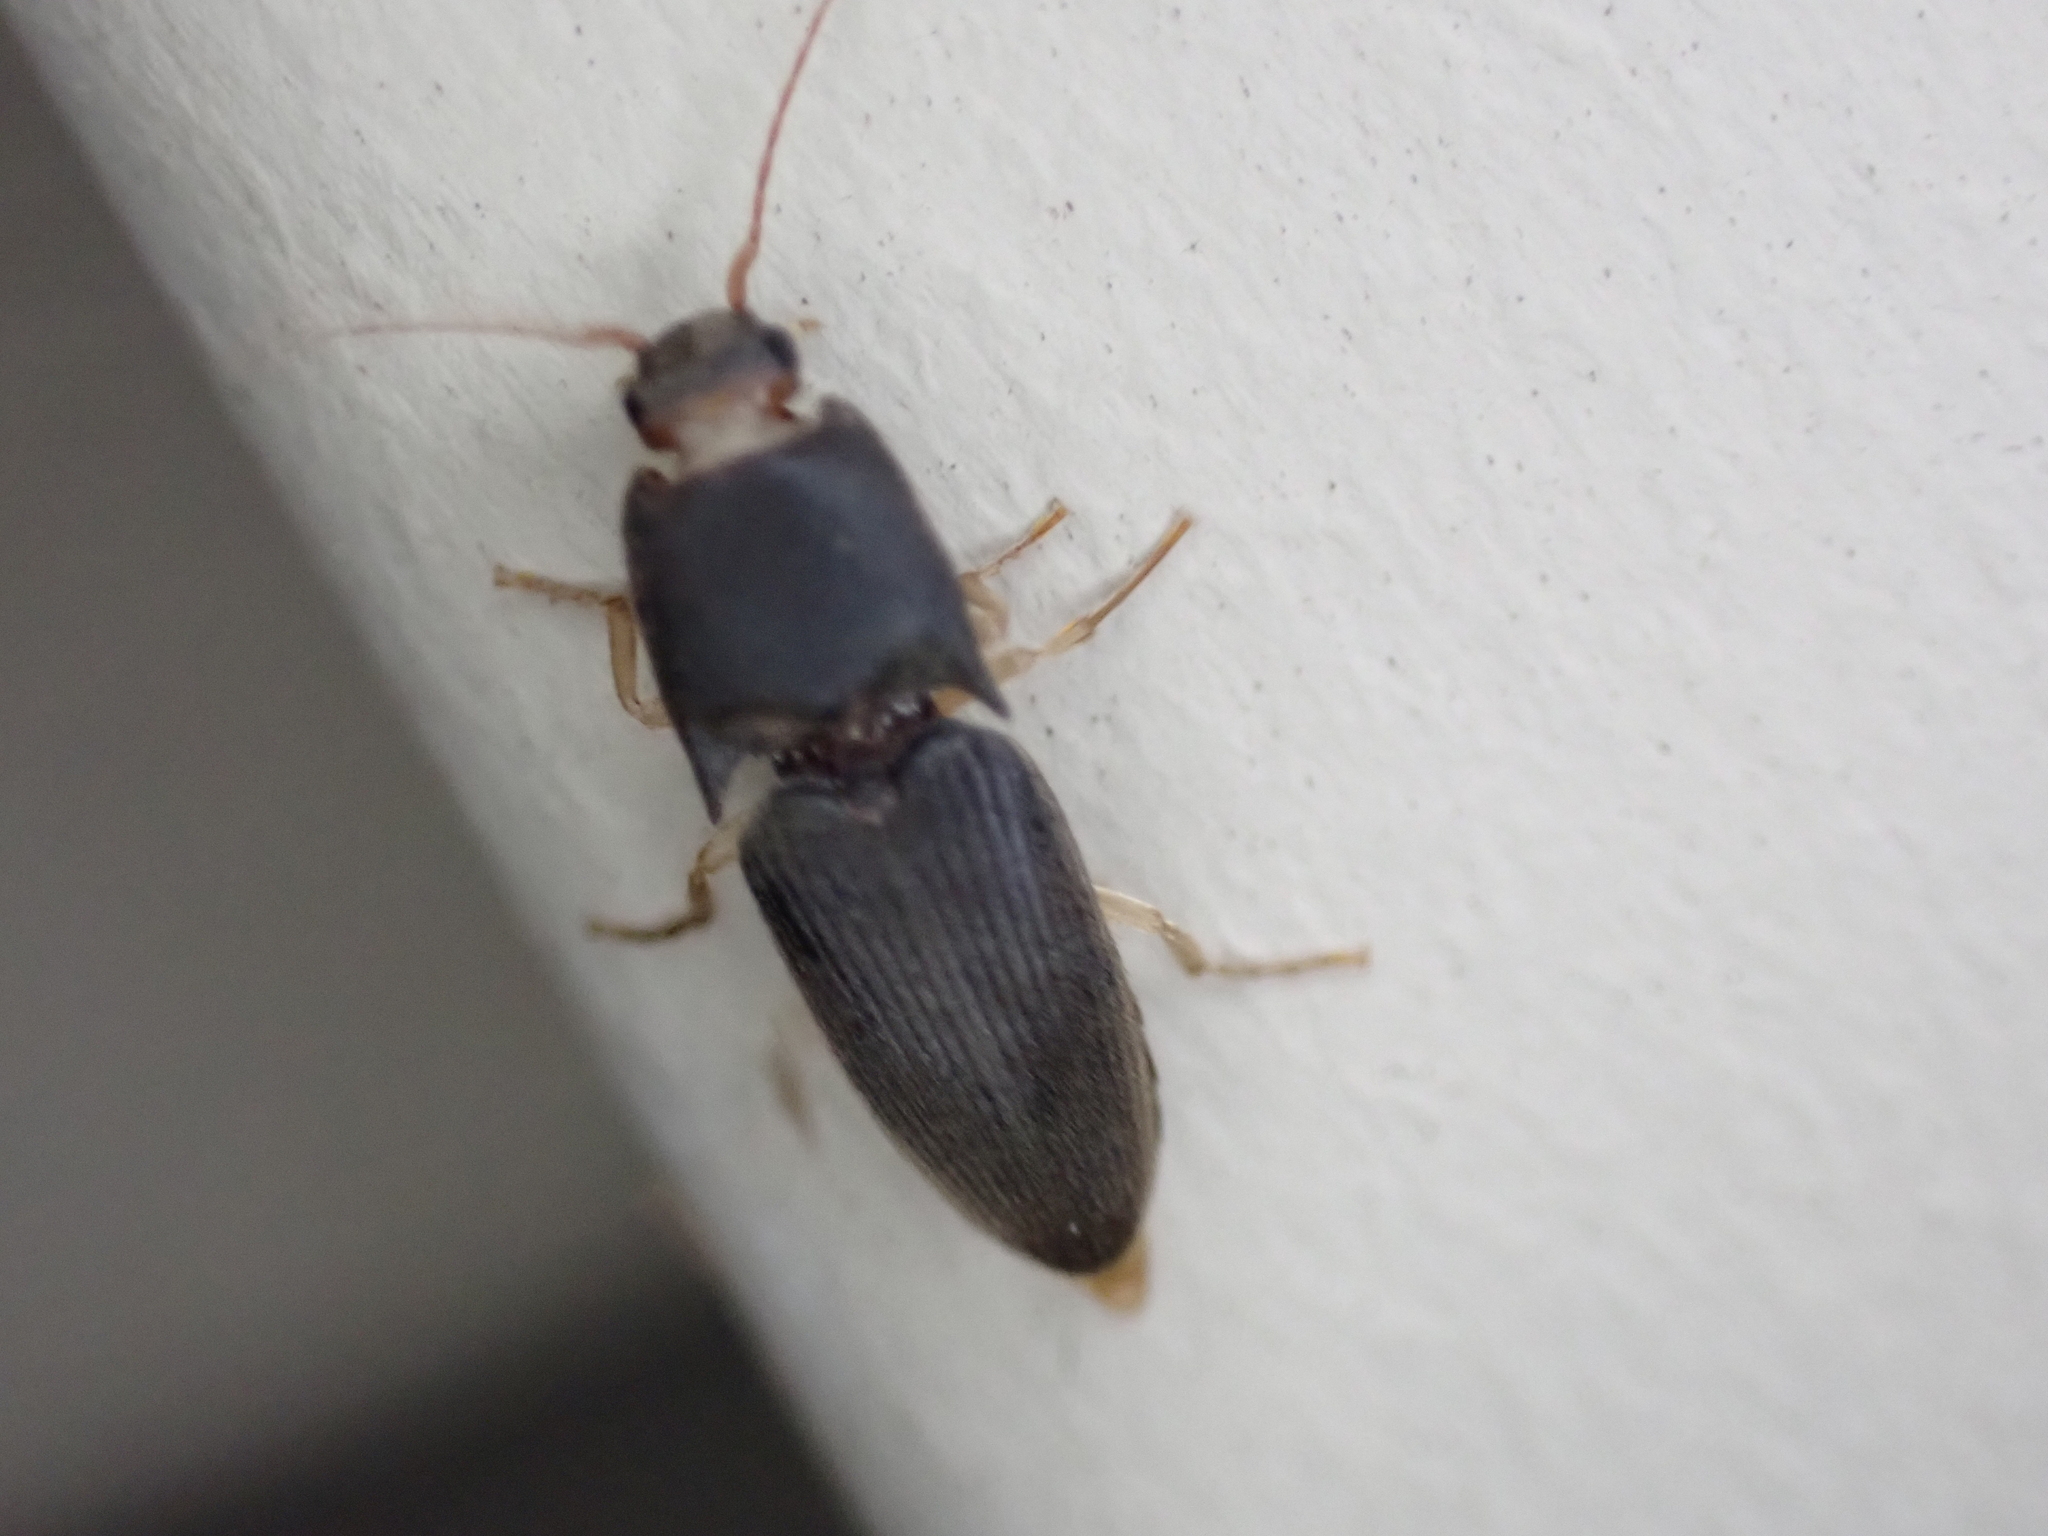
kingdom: Animalia
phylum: Arthropoda
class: Insecta
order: Coleoptera
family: Elateridae
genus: Heteroderes
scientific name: Heteroderes amplicollis
